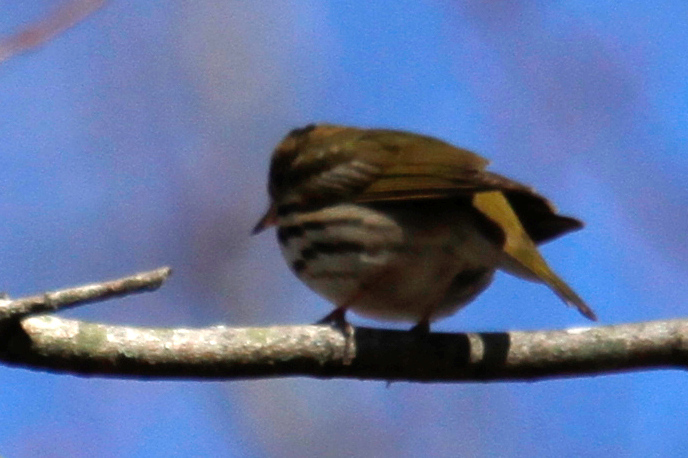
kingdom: Animalia
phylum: Chordata
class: Aves
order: Passeriformes
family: Parulidae
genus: Seiurus
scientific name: Seiurus aurocapilla
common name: Ovenbird
